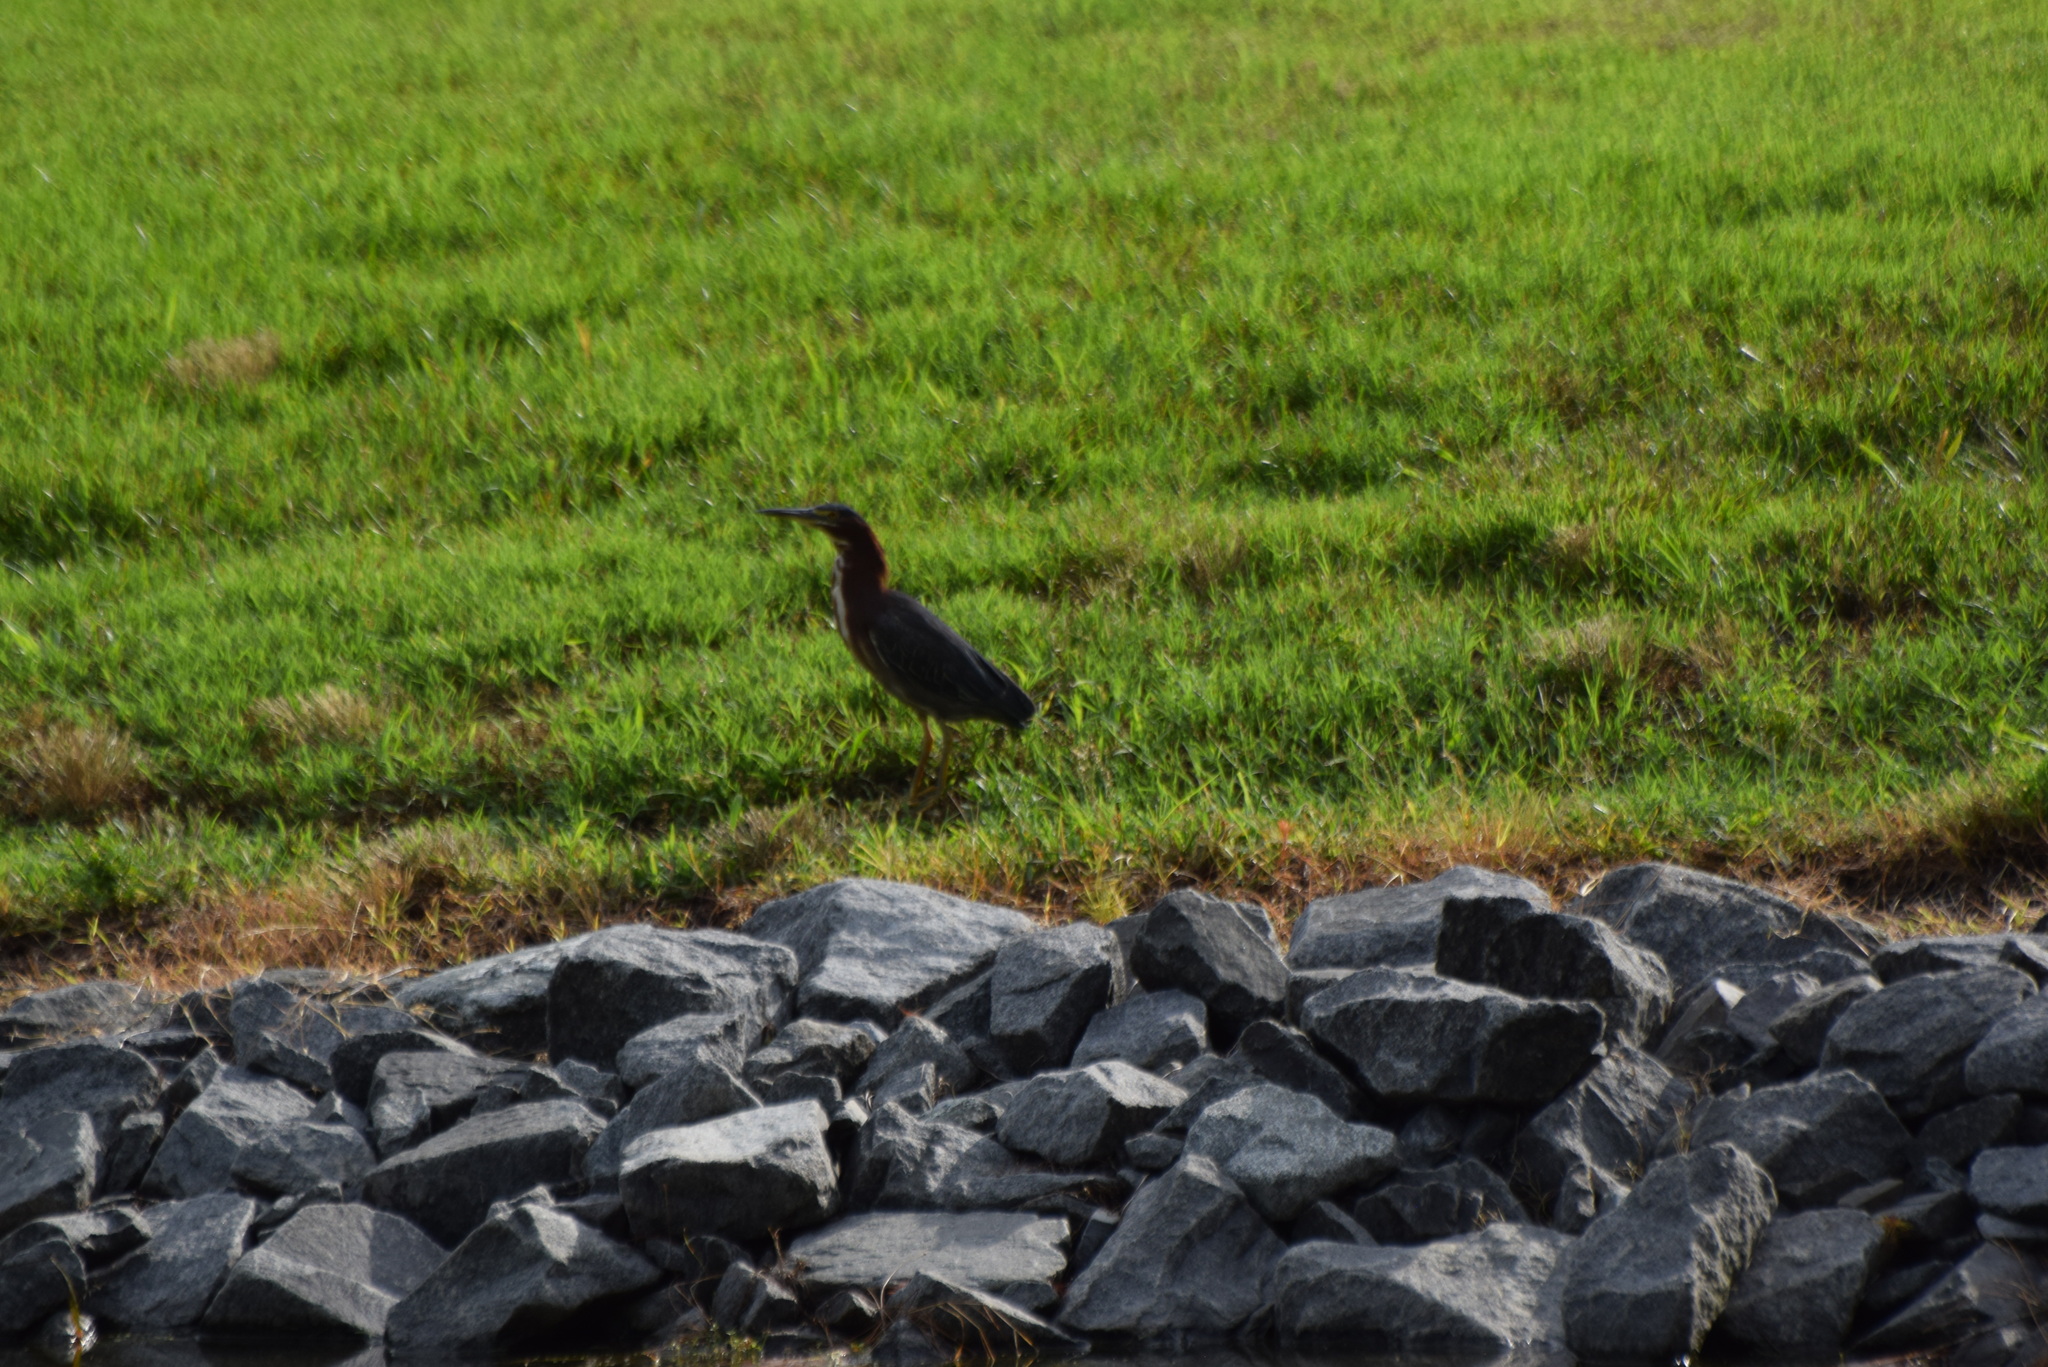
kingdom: Animalia
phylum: Chordata
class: Aves
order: Pelecaniformes
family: Ardeidae
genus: Butorides
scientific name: Butorides virescens
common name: Green heron
